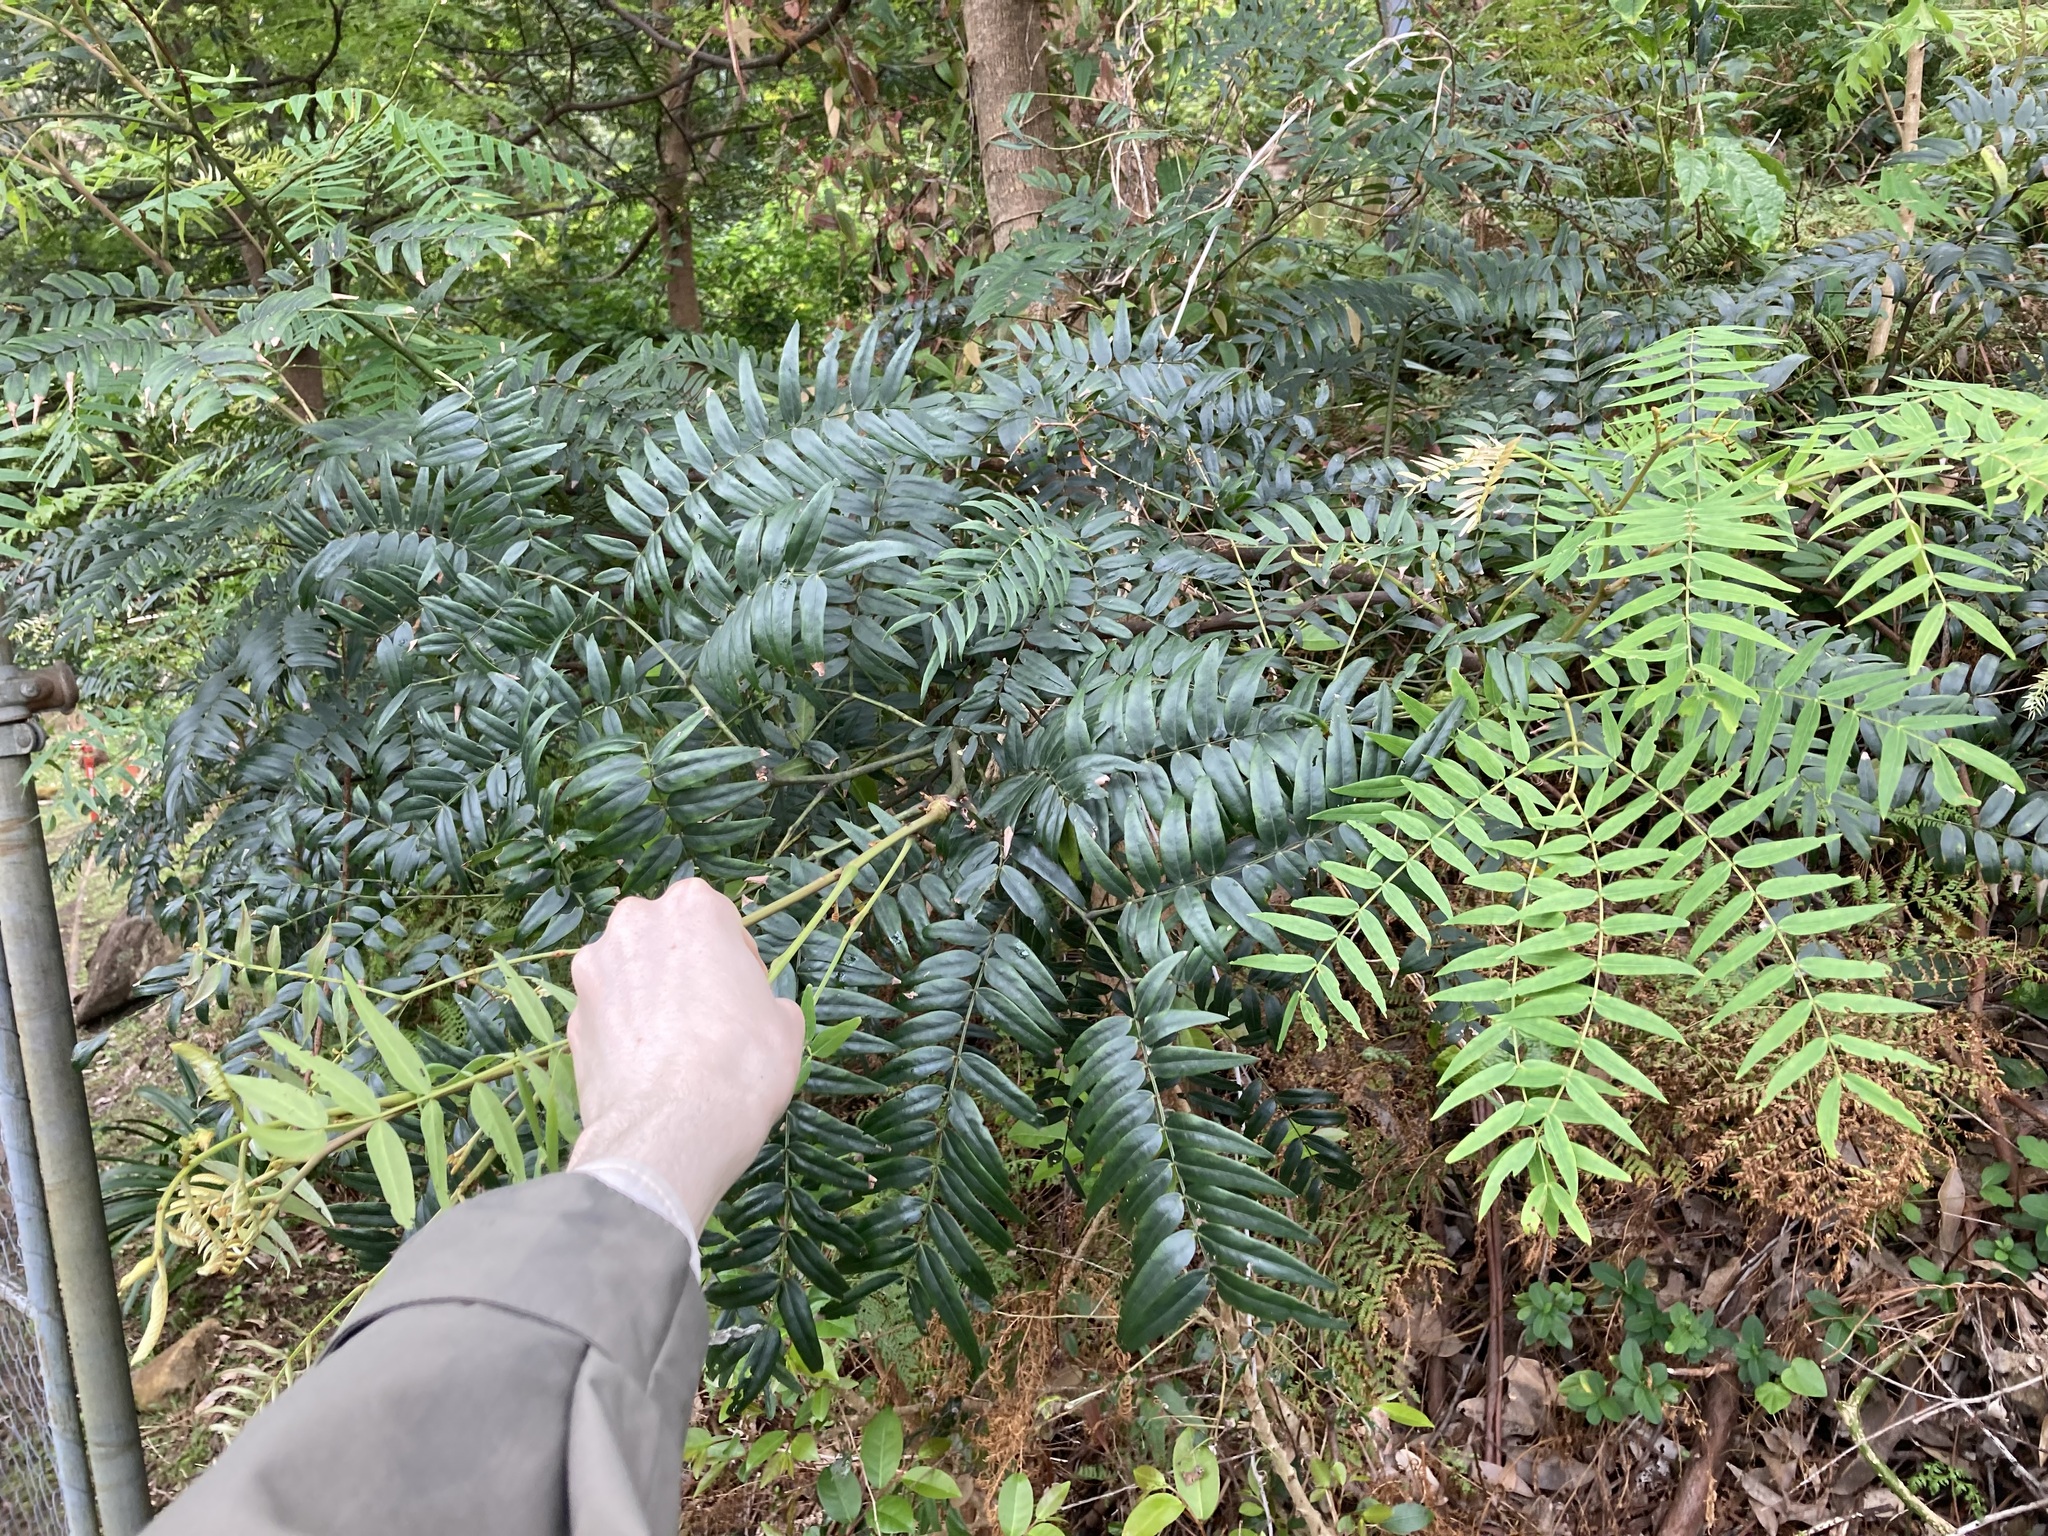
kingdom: Plantae
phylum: Tracheophyta
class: Magnoliopsida
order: Fabales
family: Fabaceae
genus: Acacia
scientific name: Acacia elata
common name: Cedar wattle
